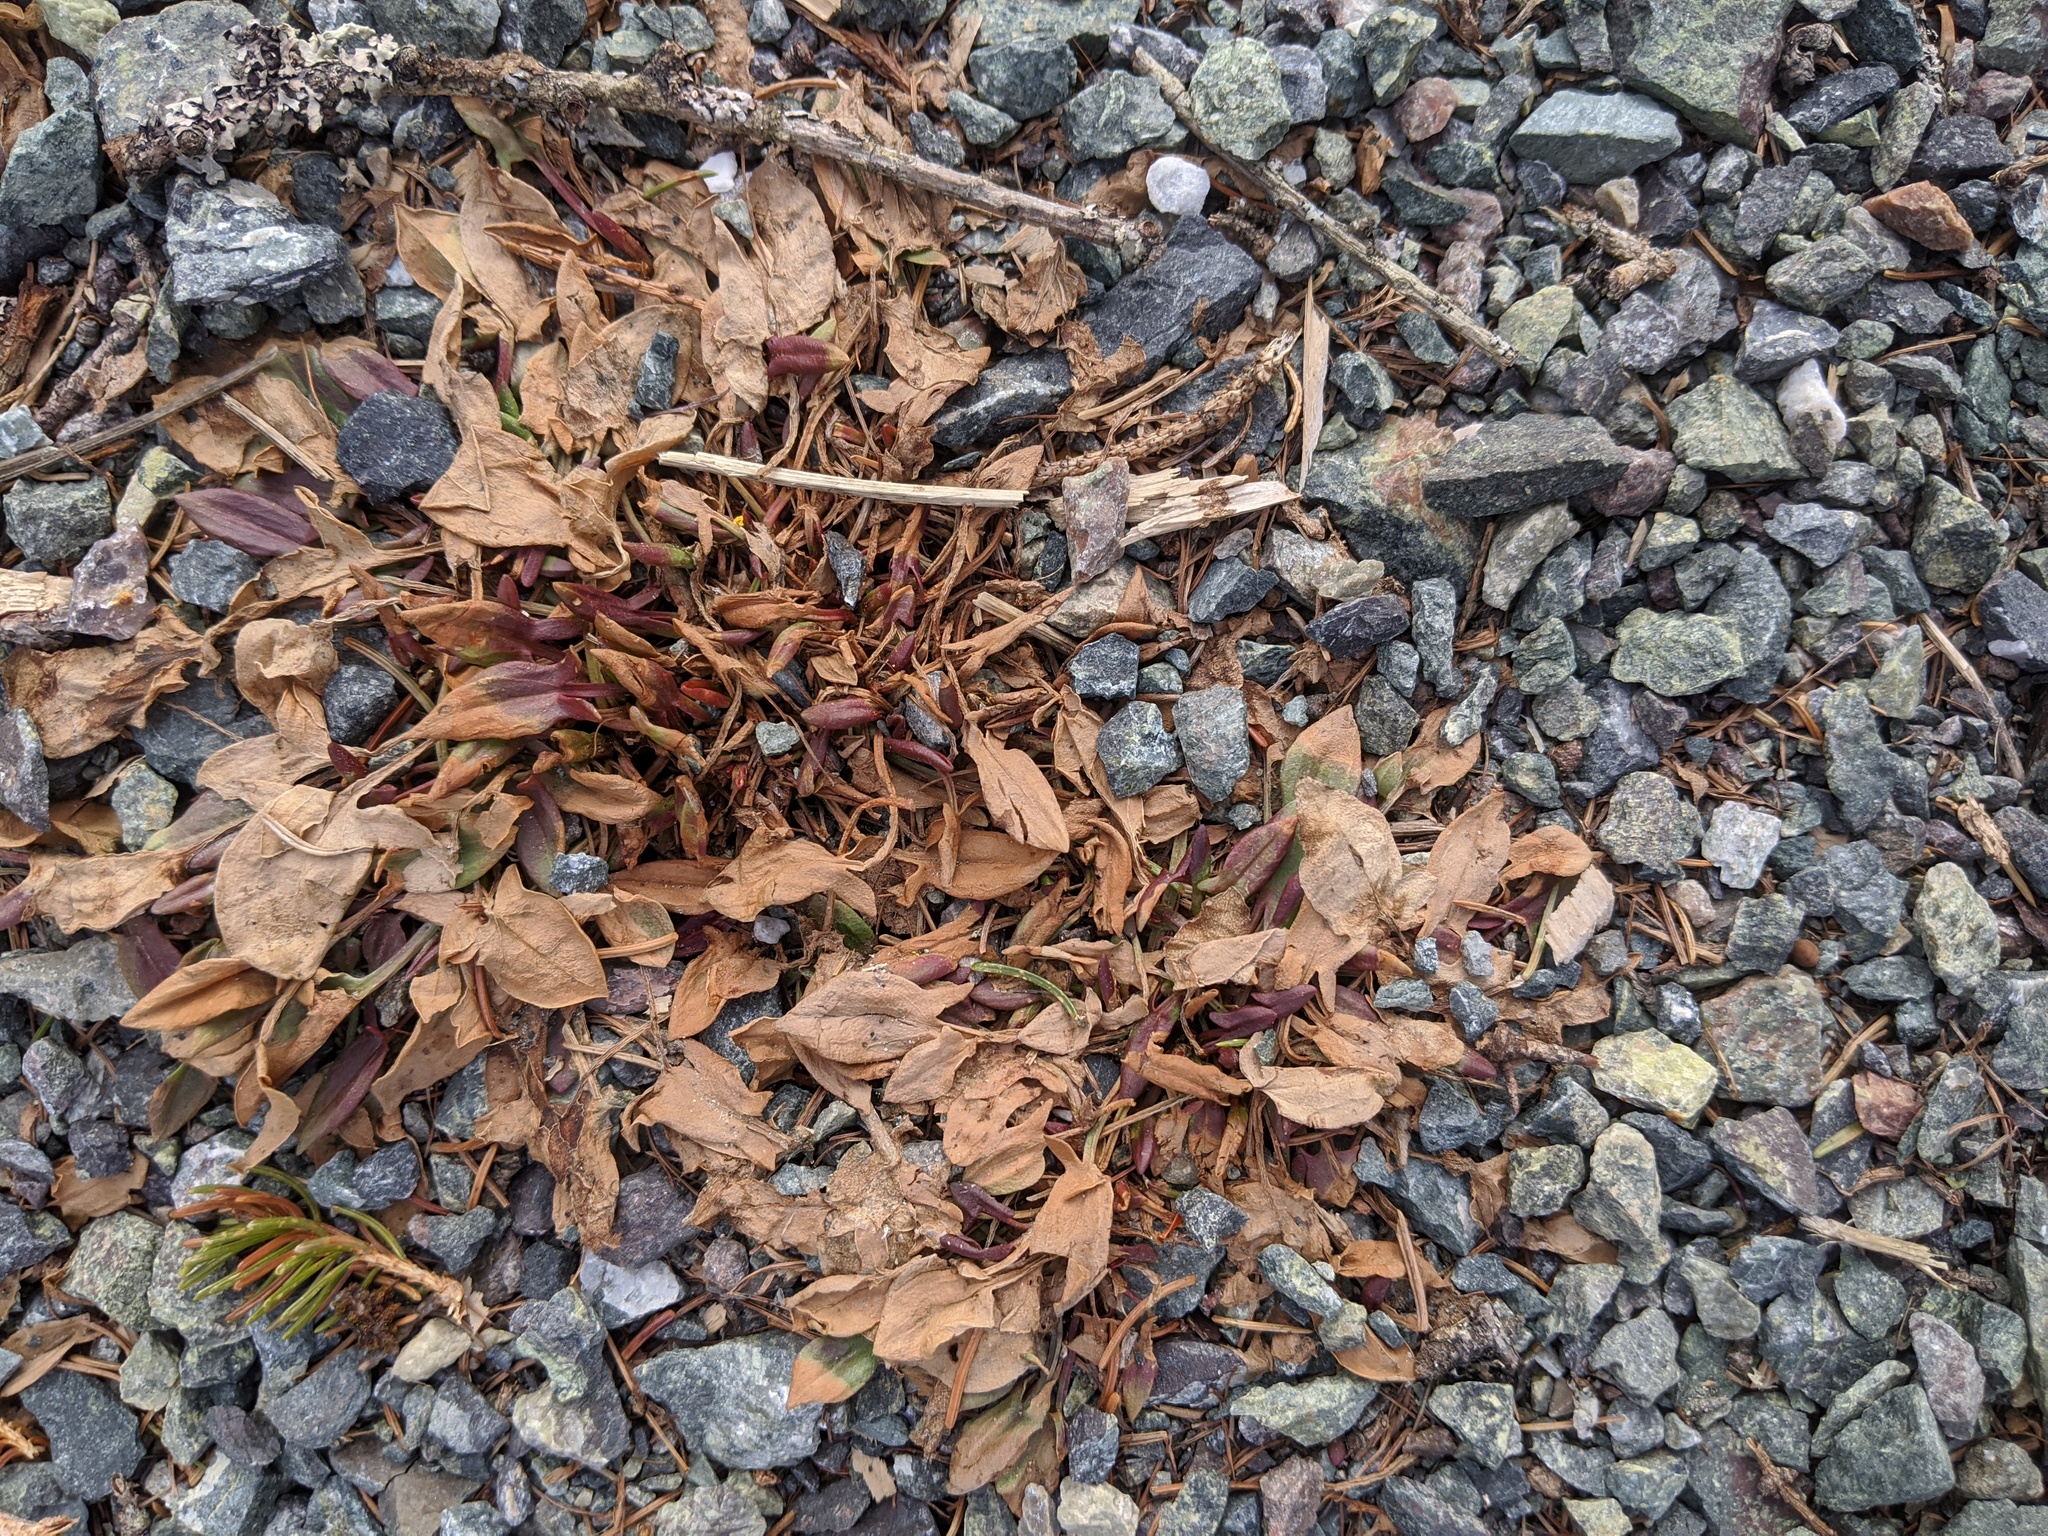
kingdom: Plantae
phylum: Tracheophyta
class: Magnoliopsida
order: Caryophyllales
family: Polygonaceae
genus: Rumex
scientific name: Rumex acetosella
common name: Common sheep sorrel
